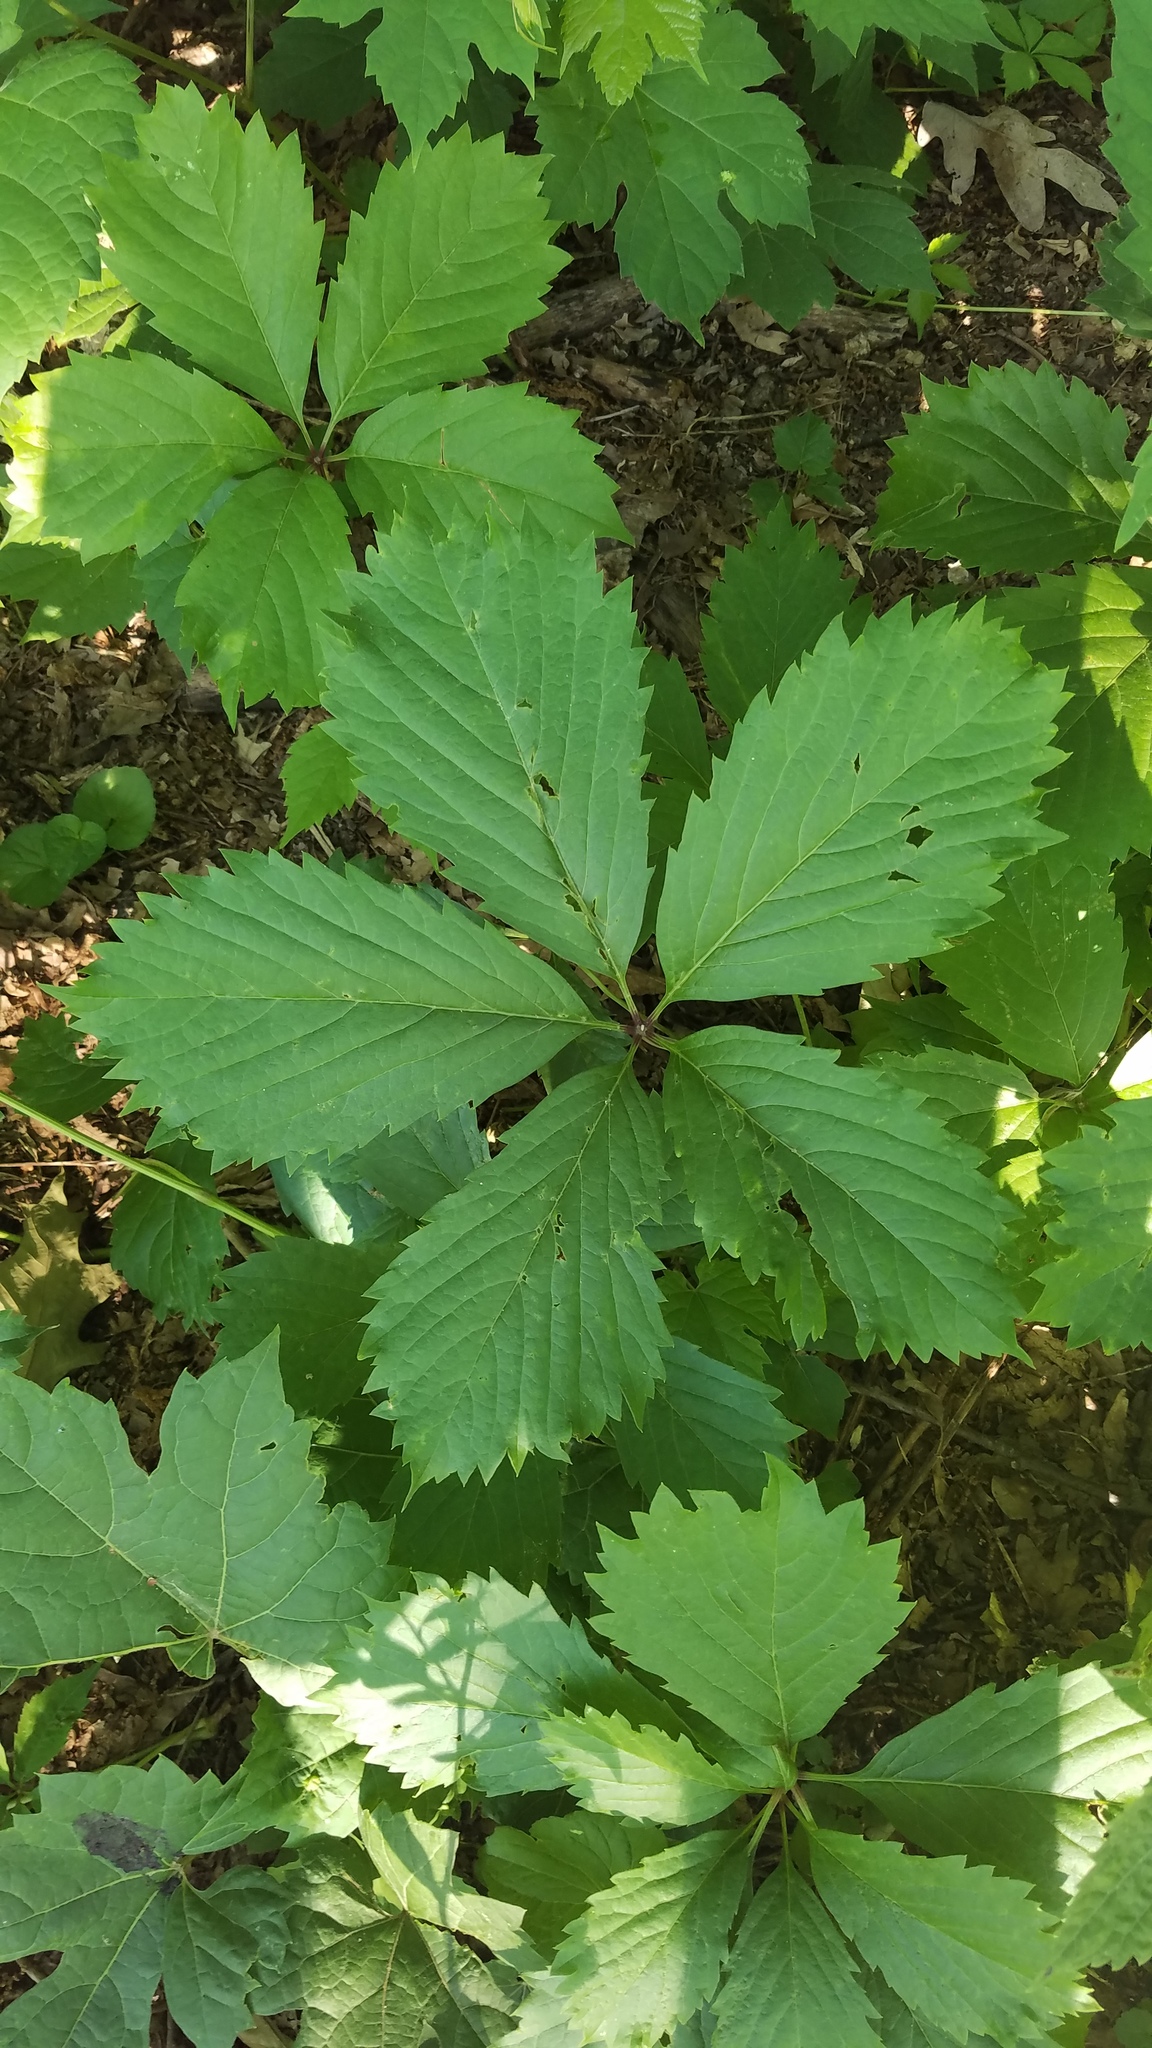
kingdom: Plantae
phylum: Tracheophyta
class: Magnoliopsida
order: Vitales
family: Vitaceae
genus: Parthenocissus
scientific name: Parthenocissus inserta
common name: False virginia-creeper
